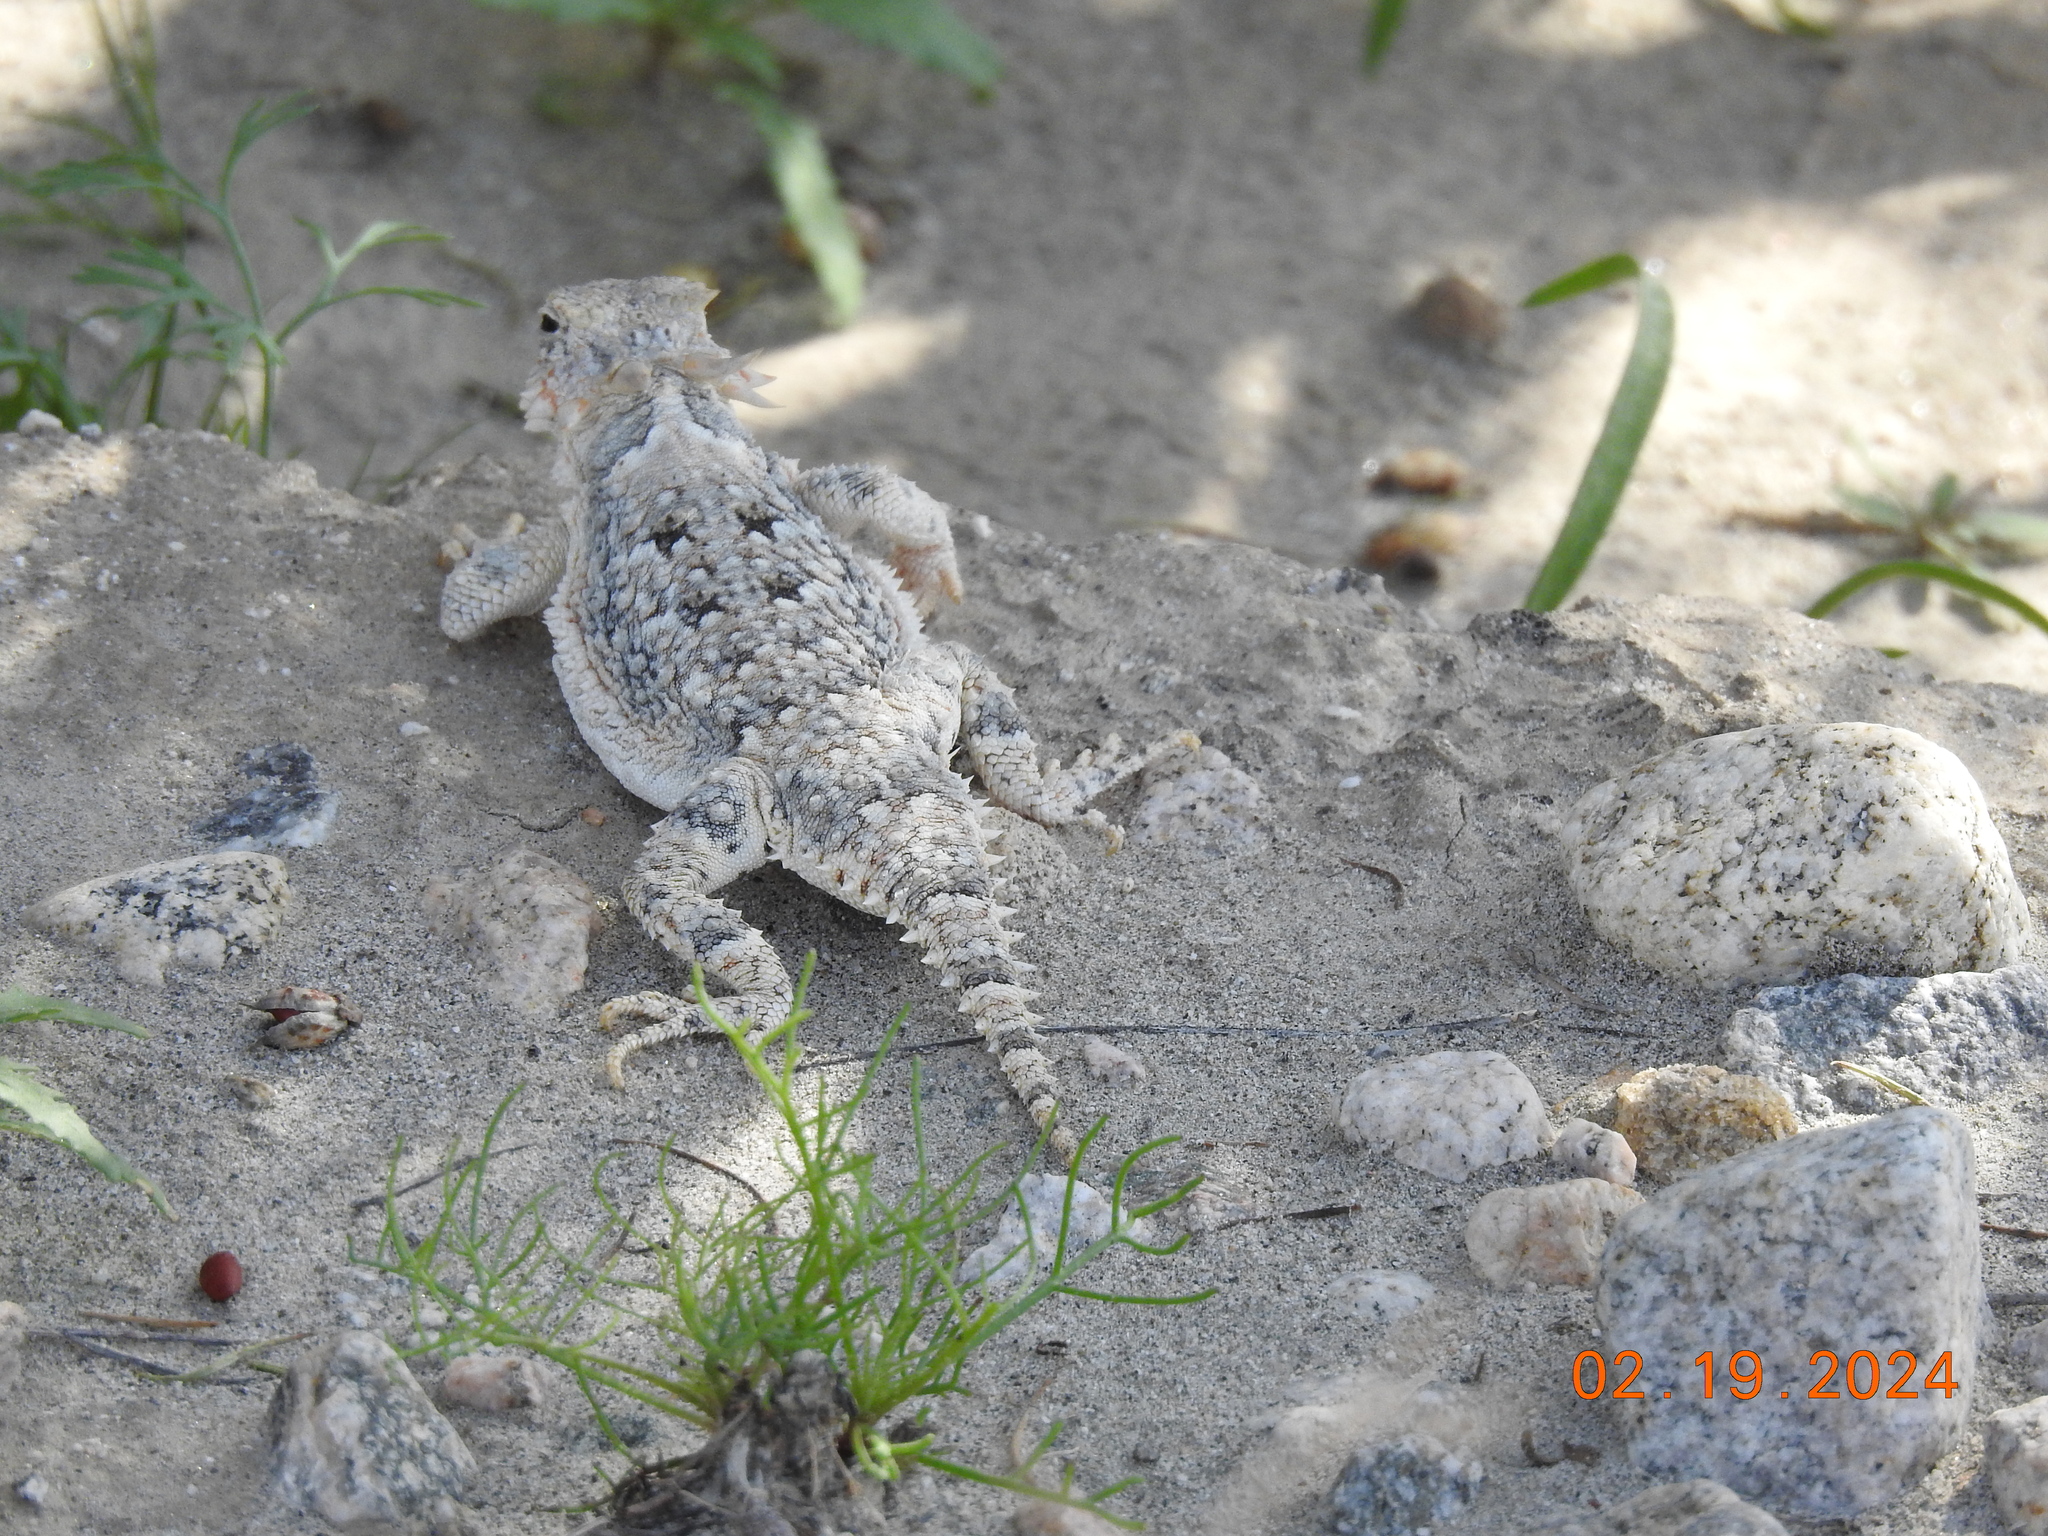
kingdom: Animalia
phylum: Chordata
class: Squamata
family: Phrynosomatidae
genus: Phrynosoma
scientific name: Phrynosoma platyrhinos
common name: Desert horned lizard
